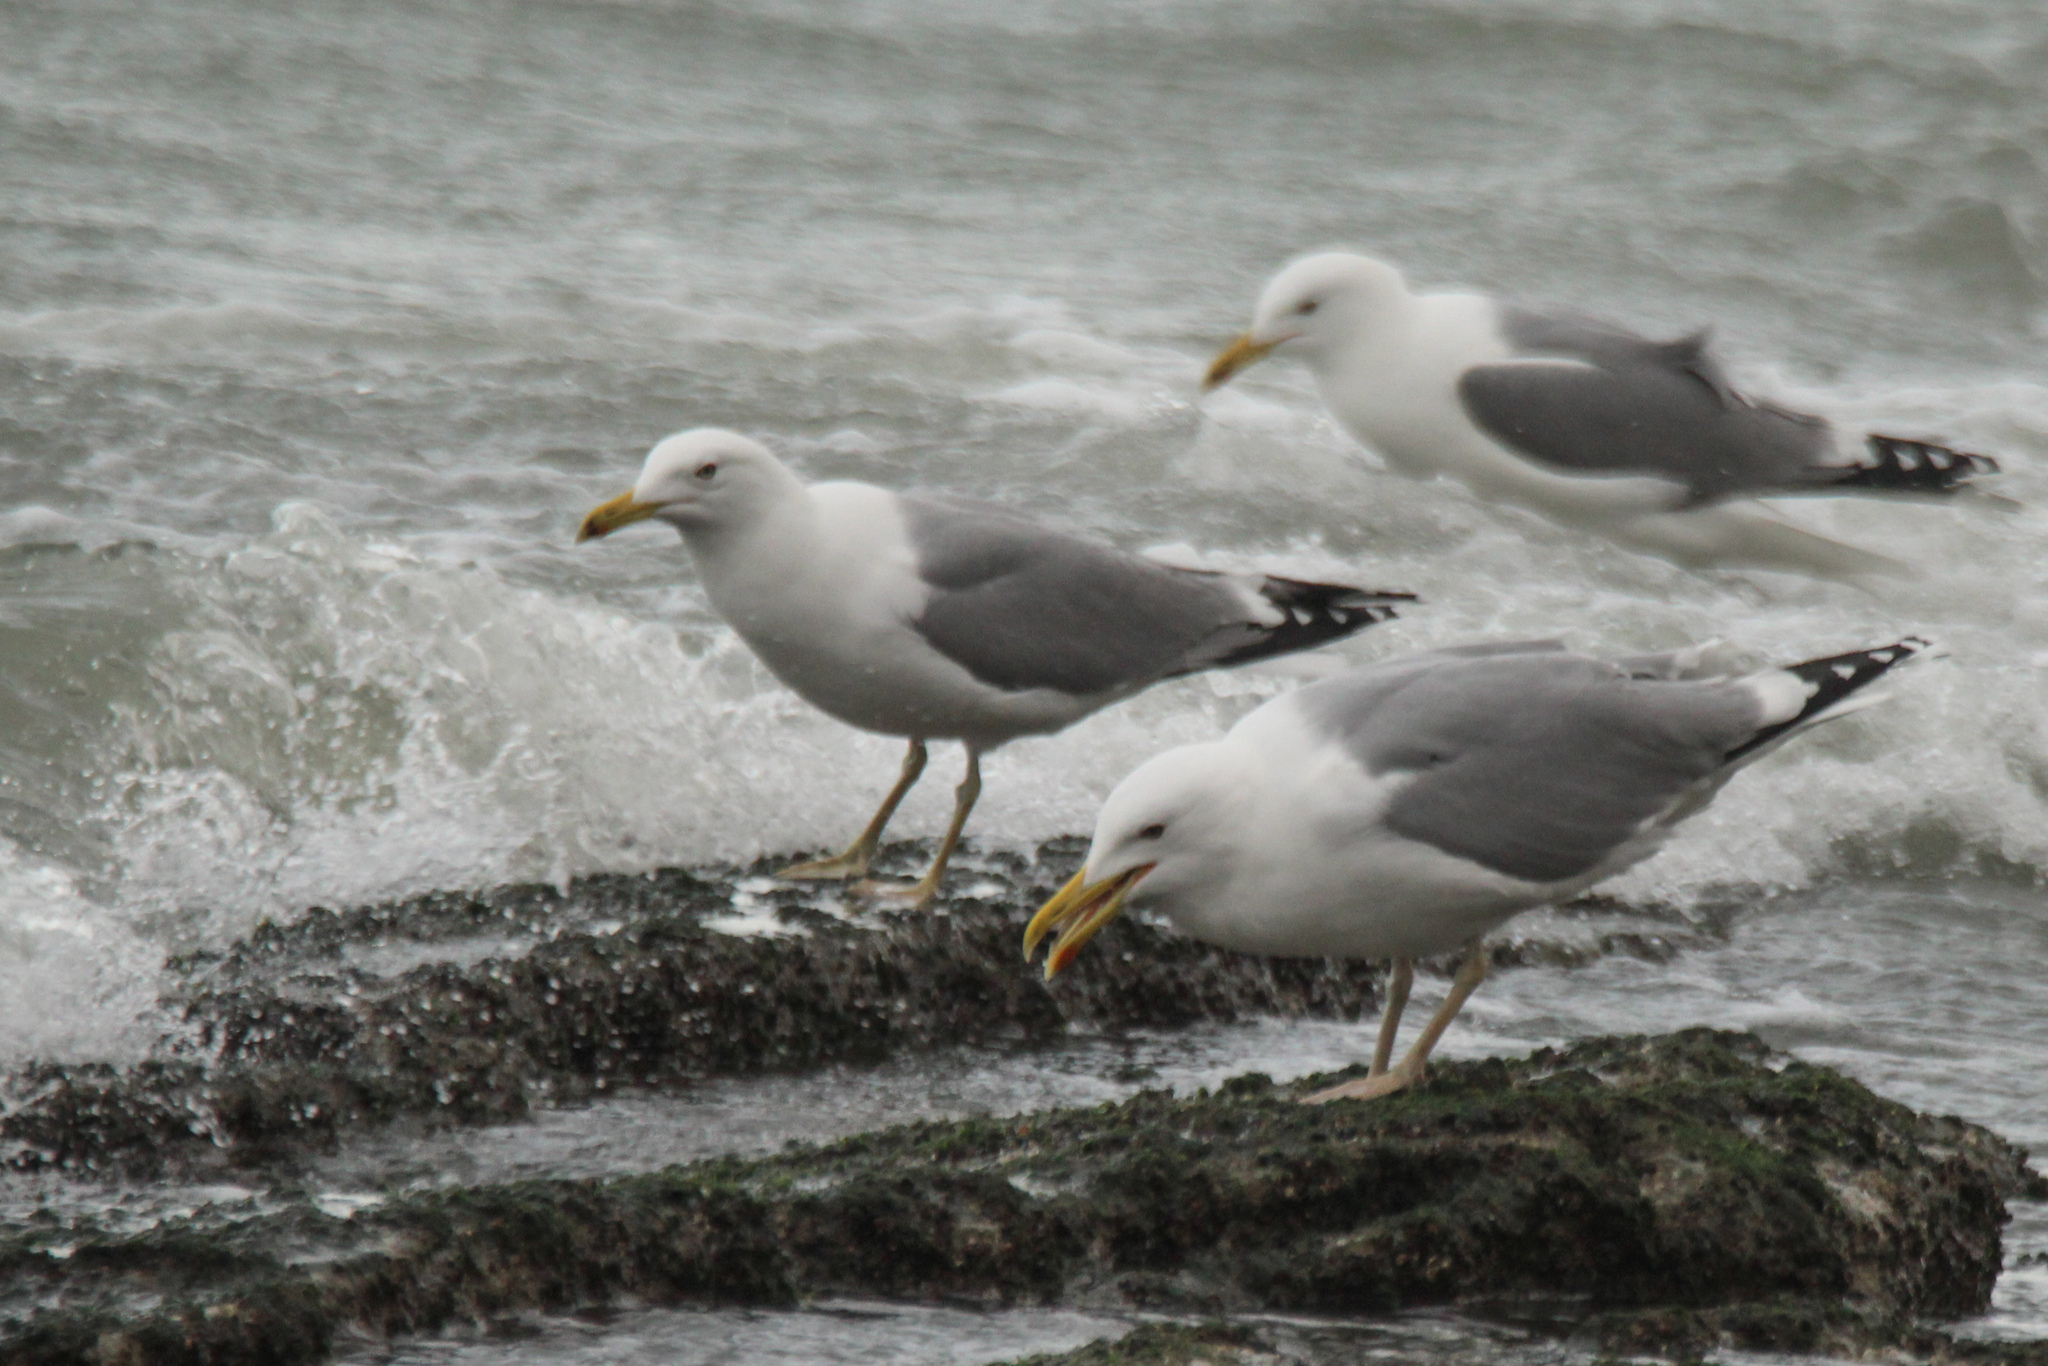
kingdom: Animalia
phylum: Chordata
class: Aves
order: Charadriiformes
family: Laridae
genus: Larus
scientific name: Larus cachinnans
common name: Caspian gull
